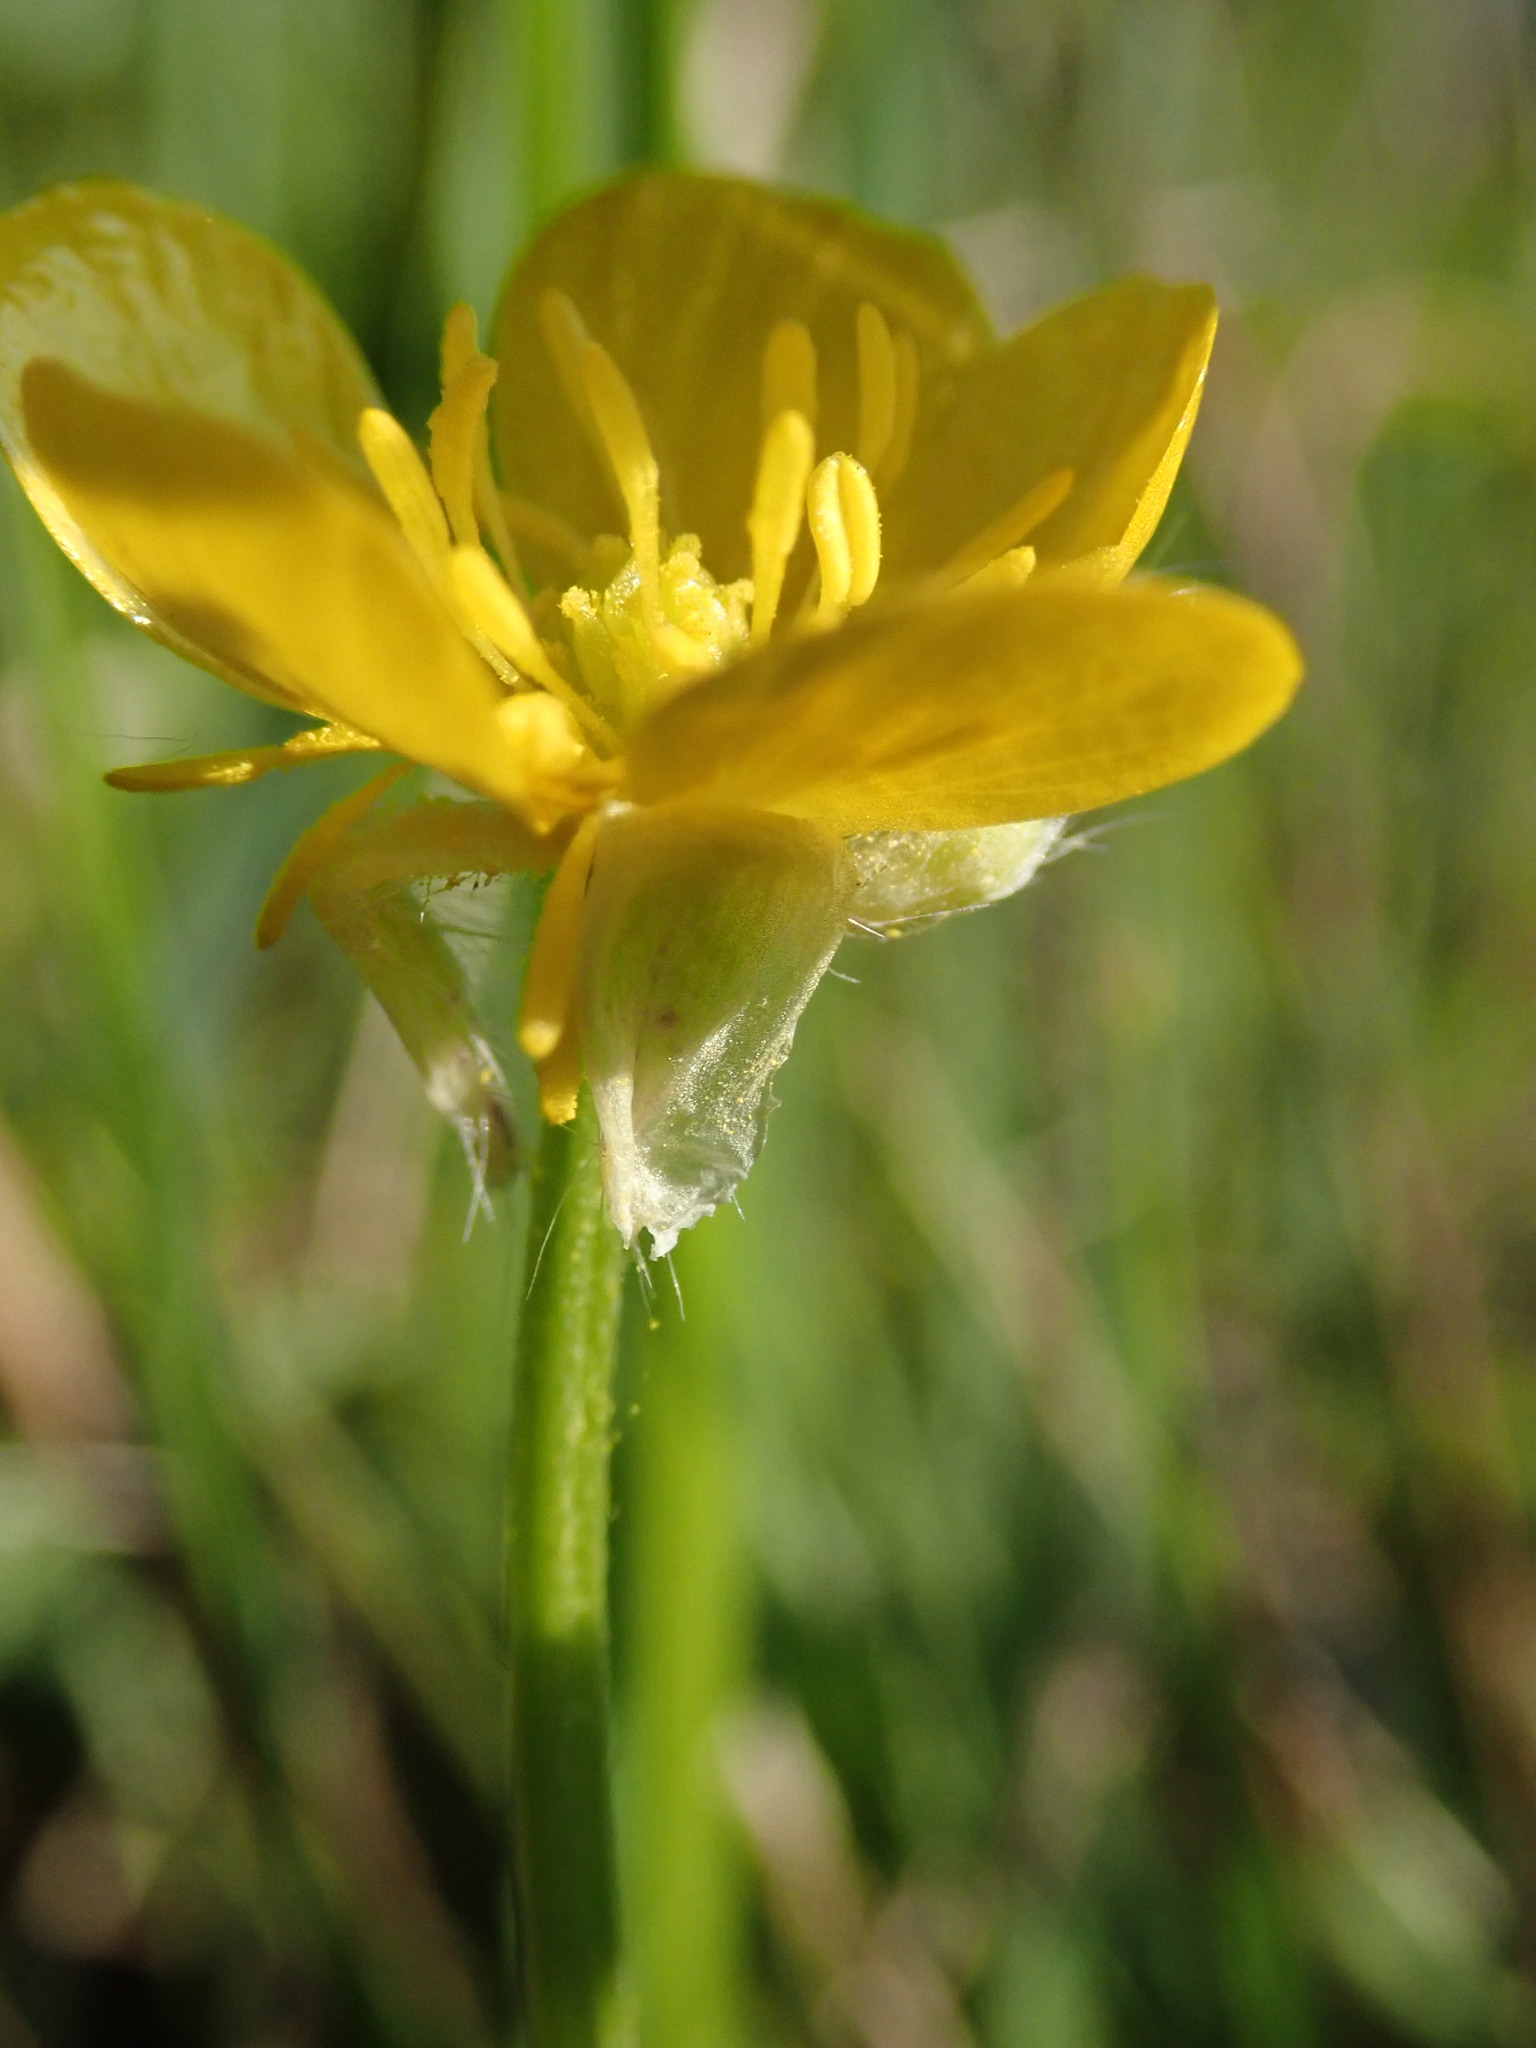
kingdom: Plantae
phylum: Tracheophyta
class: Magnoliopsida
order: Ranunculales
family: Ranunculaceae
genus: Ranunculus
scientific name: Ranunculus bulbosus
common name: Bulbous buttercup
